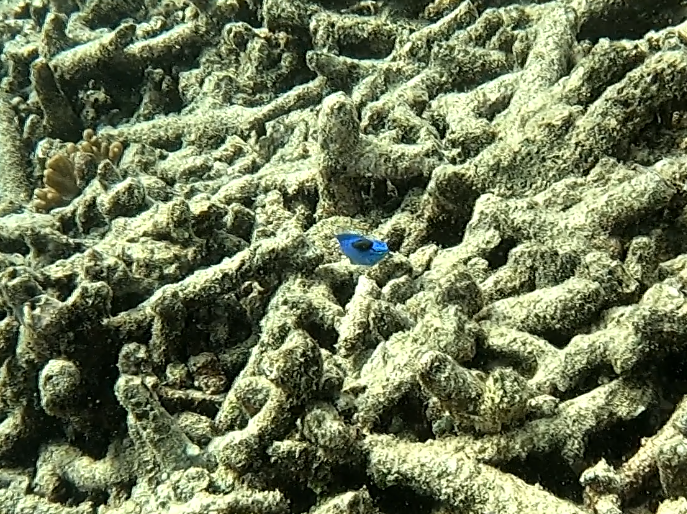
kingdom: Animalia
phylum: Chordata
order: Perciformes
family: Pomacentridae
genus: Chrysiptera
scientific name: Chrysiptera cyanea
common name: Blue devil
